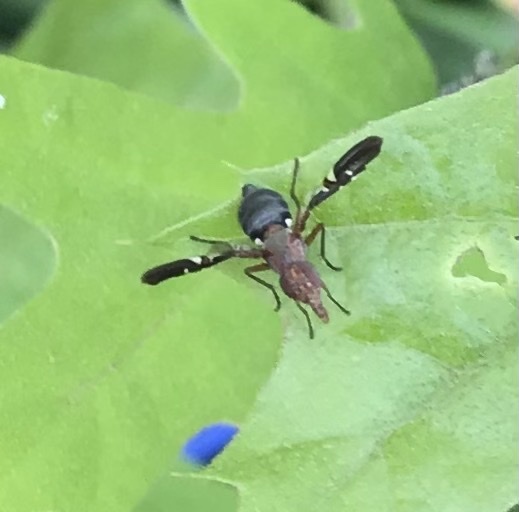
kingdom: Animalia
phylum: Arthropoda
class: Insecta
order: Diptera
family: Ulidiidae
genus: Delphinia
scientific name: Delphinia picta
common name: Common picture-winged fly
